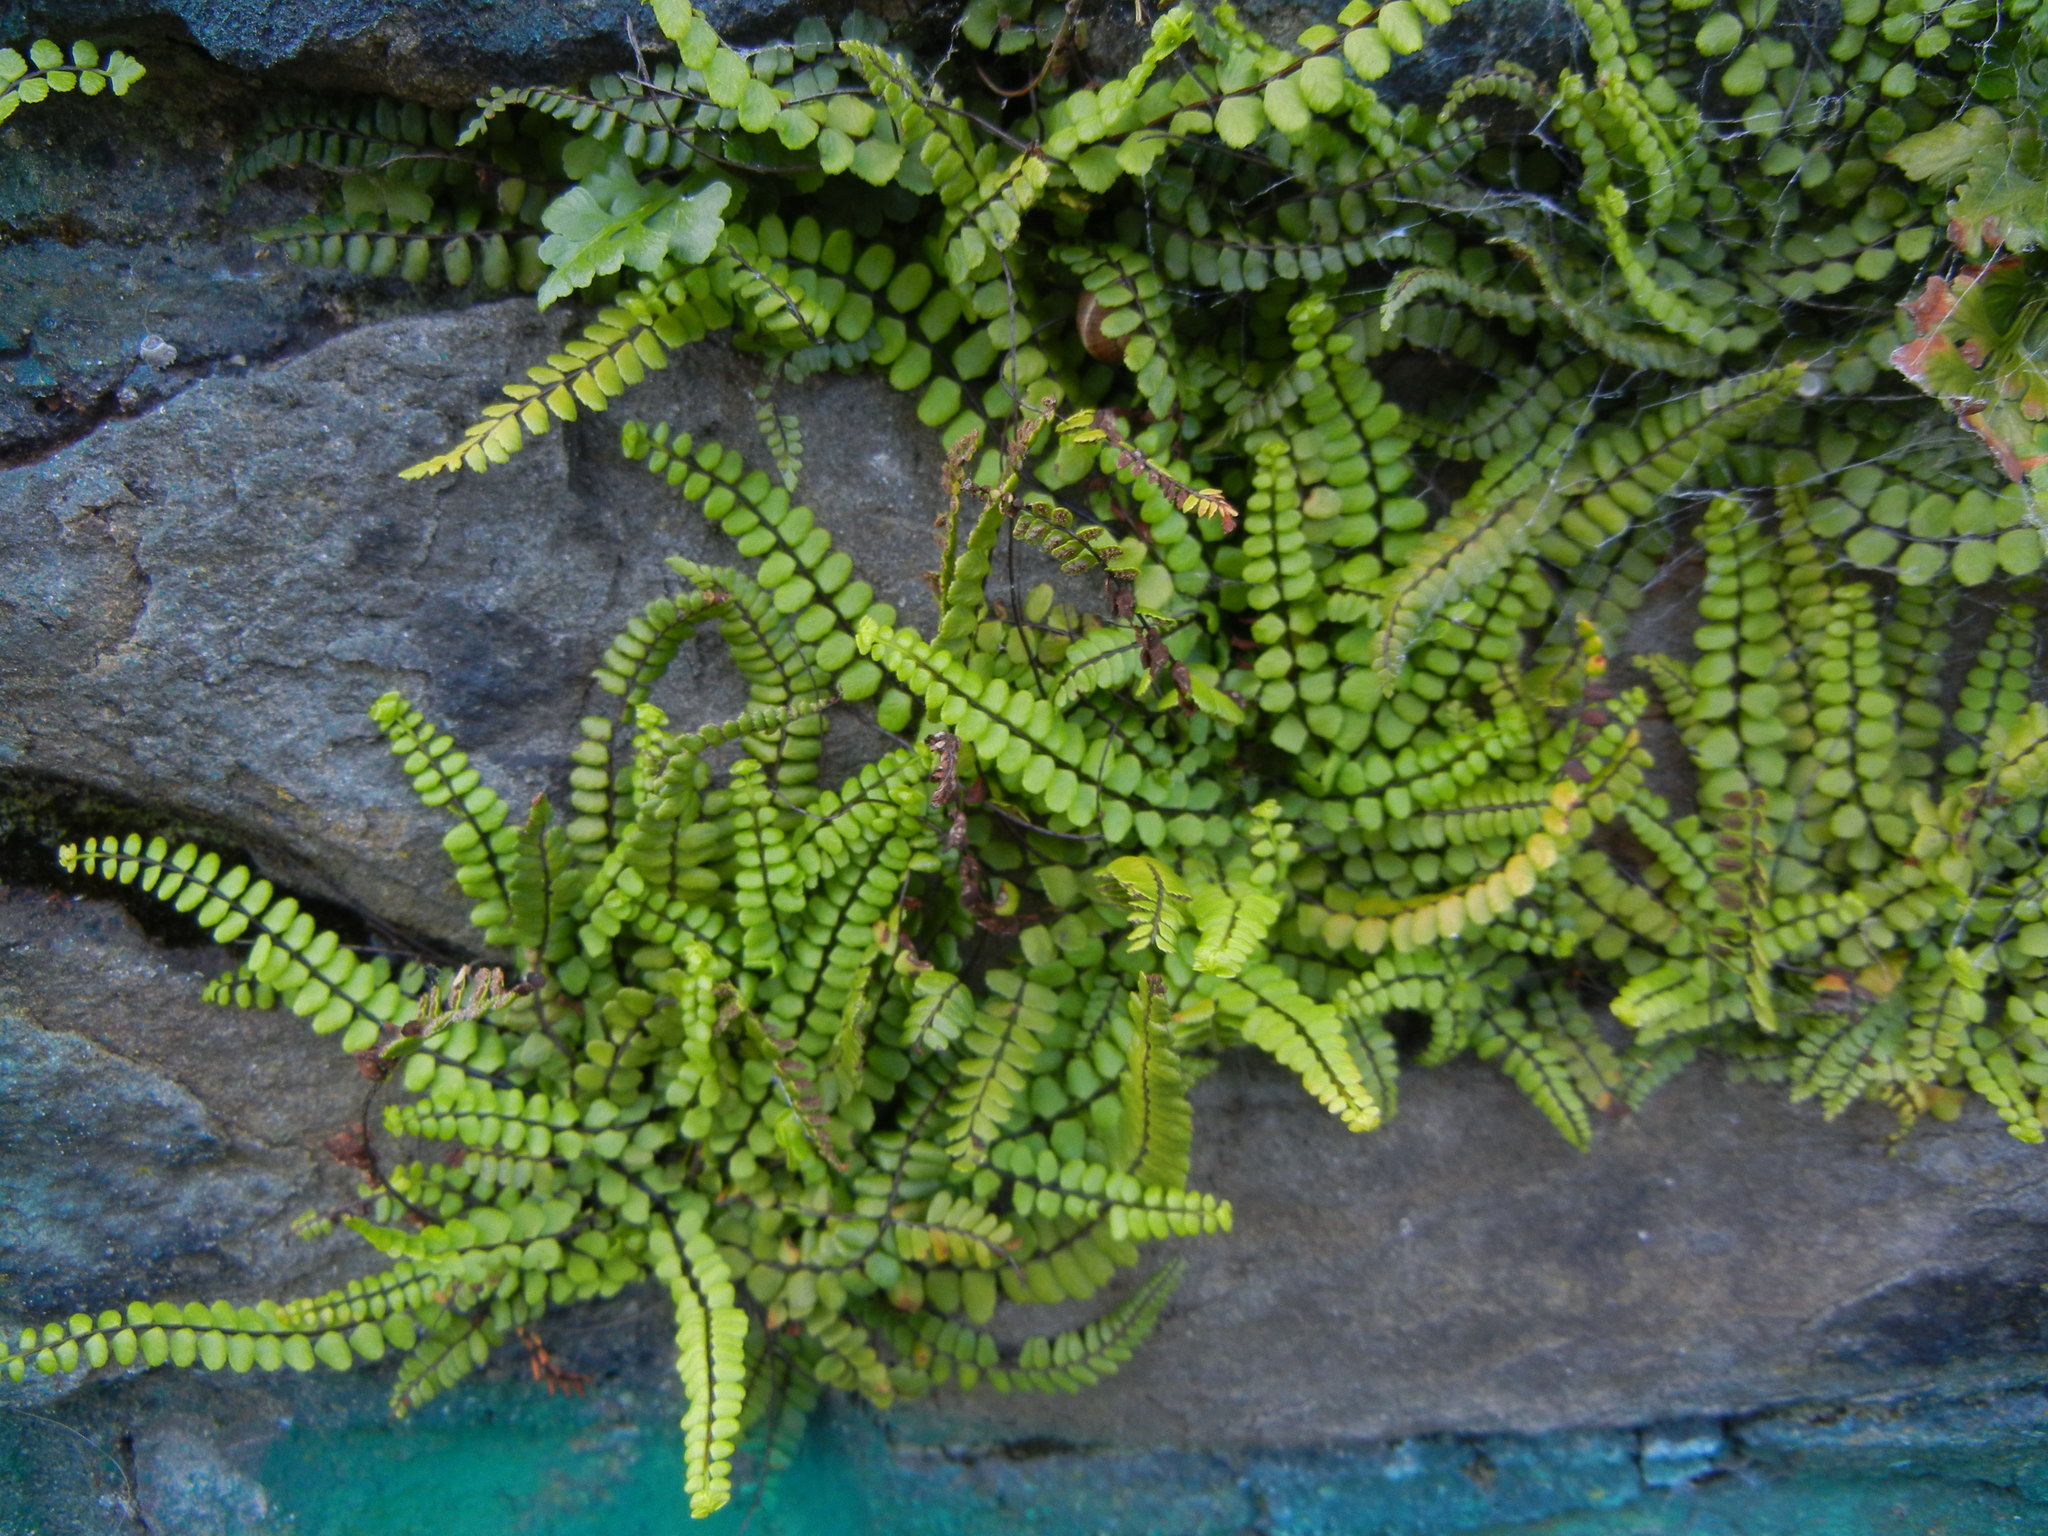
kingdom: Plantae
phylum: Tracheophyta
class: Polypodiopsida
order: Polypodiales
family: Aspleniaceae
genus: Asplenium
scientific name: Asplenium trichomanes
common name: Maidenhair spleenwort
